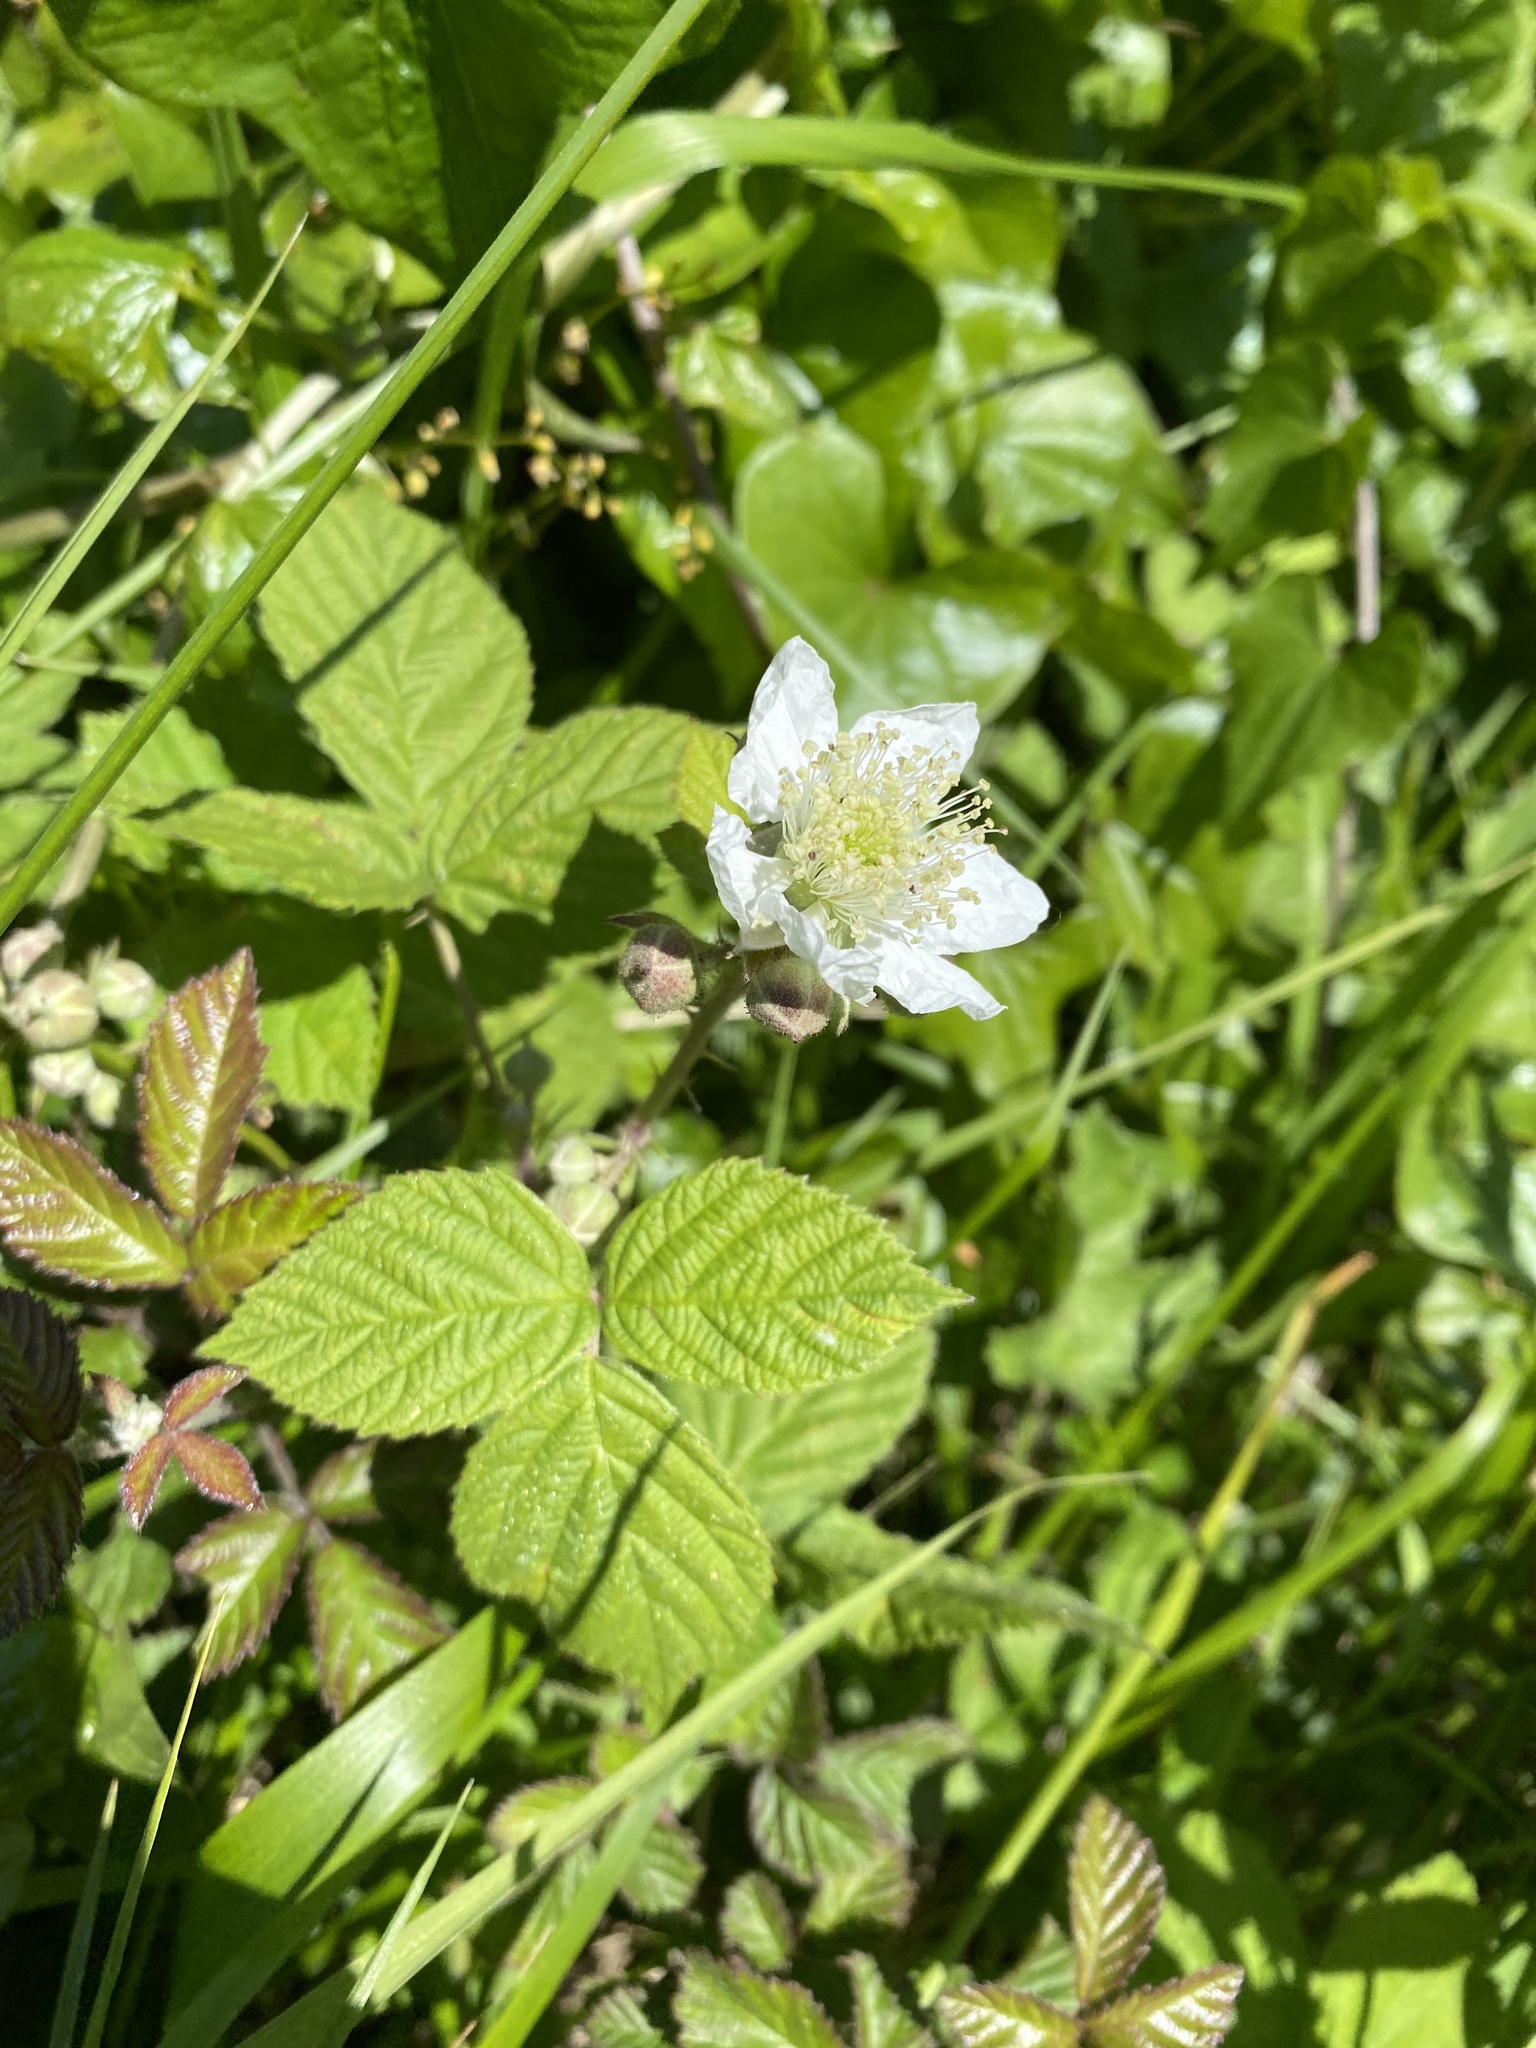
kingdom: Plantae
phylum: Tracheophyta
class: Magnoliopsida
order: Rosales
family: Rosaceae
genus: Rubus
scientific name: Rubus caesius
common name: Dewberry
